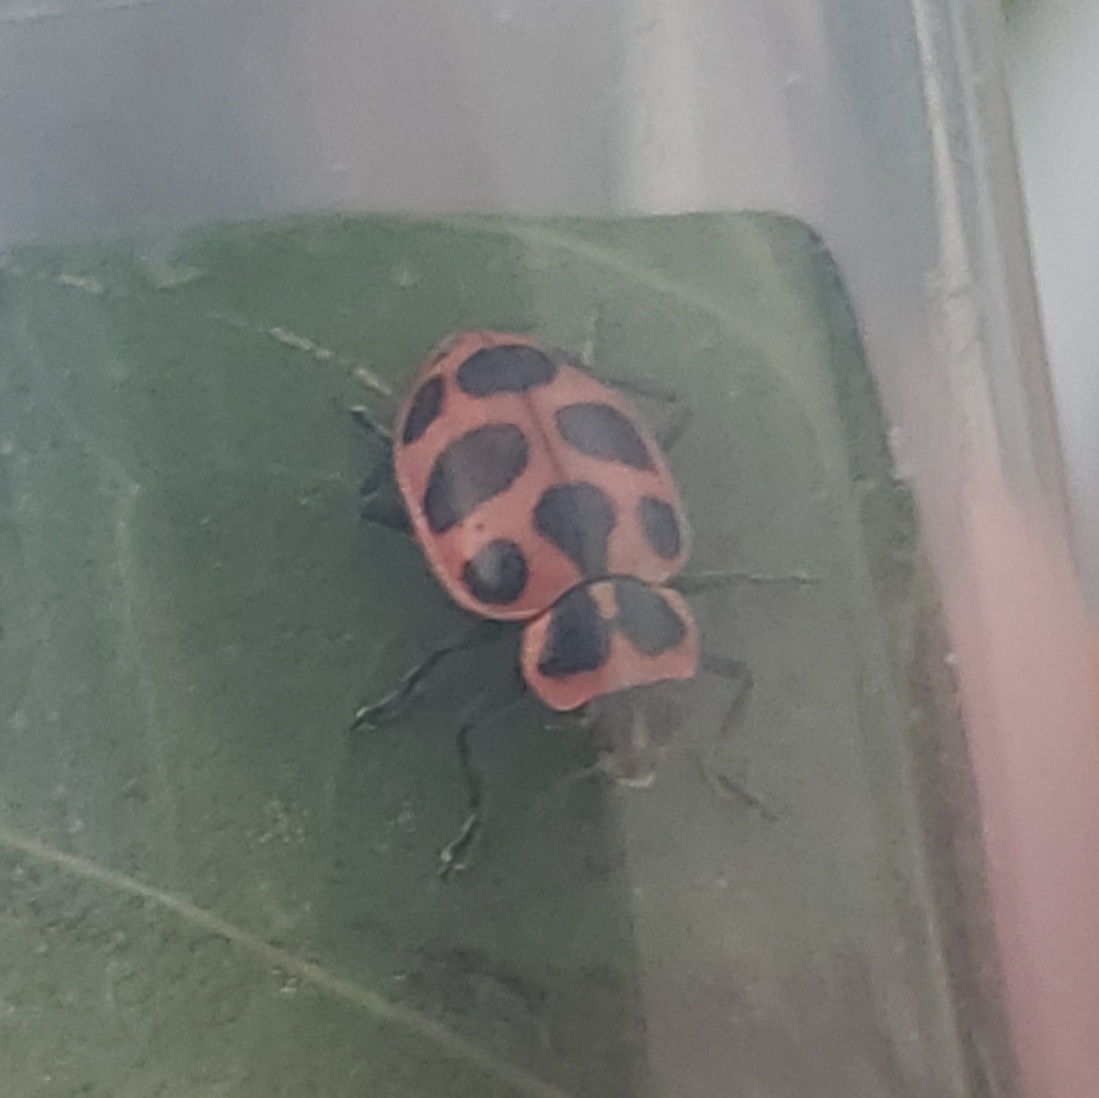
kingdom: Animalia
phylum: Arthropoda
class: Insecta
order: Coleoptera
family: Coccinellidae
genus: Coleomegilla
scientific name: Coleomegilla maculata
